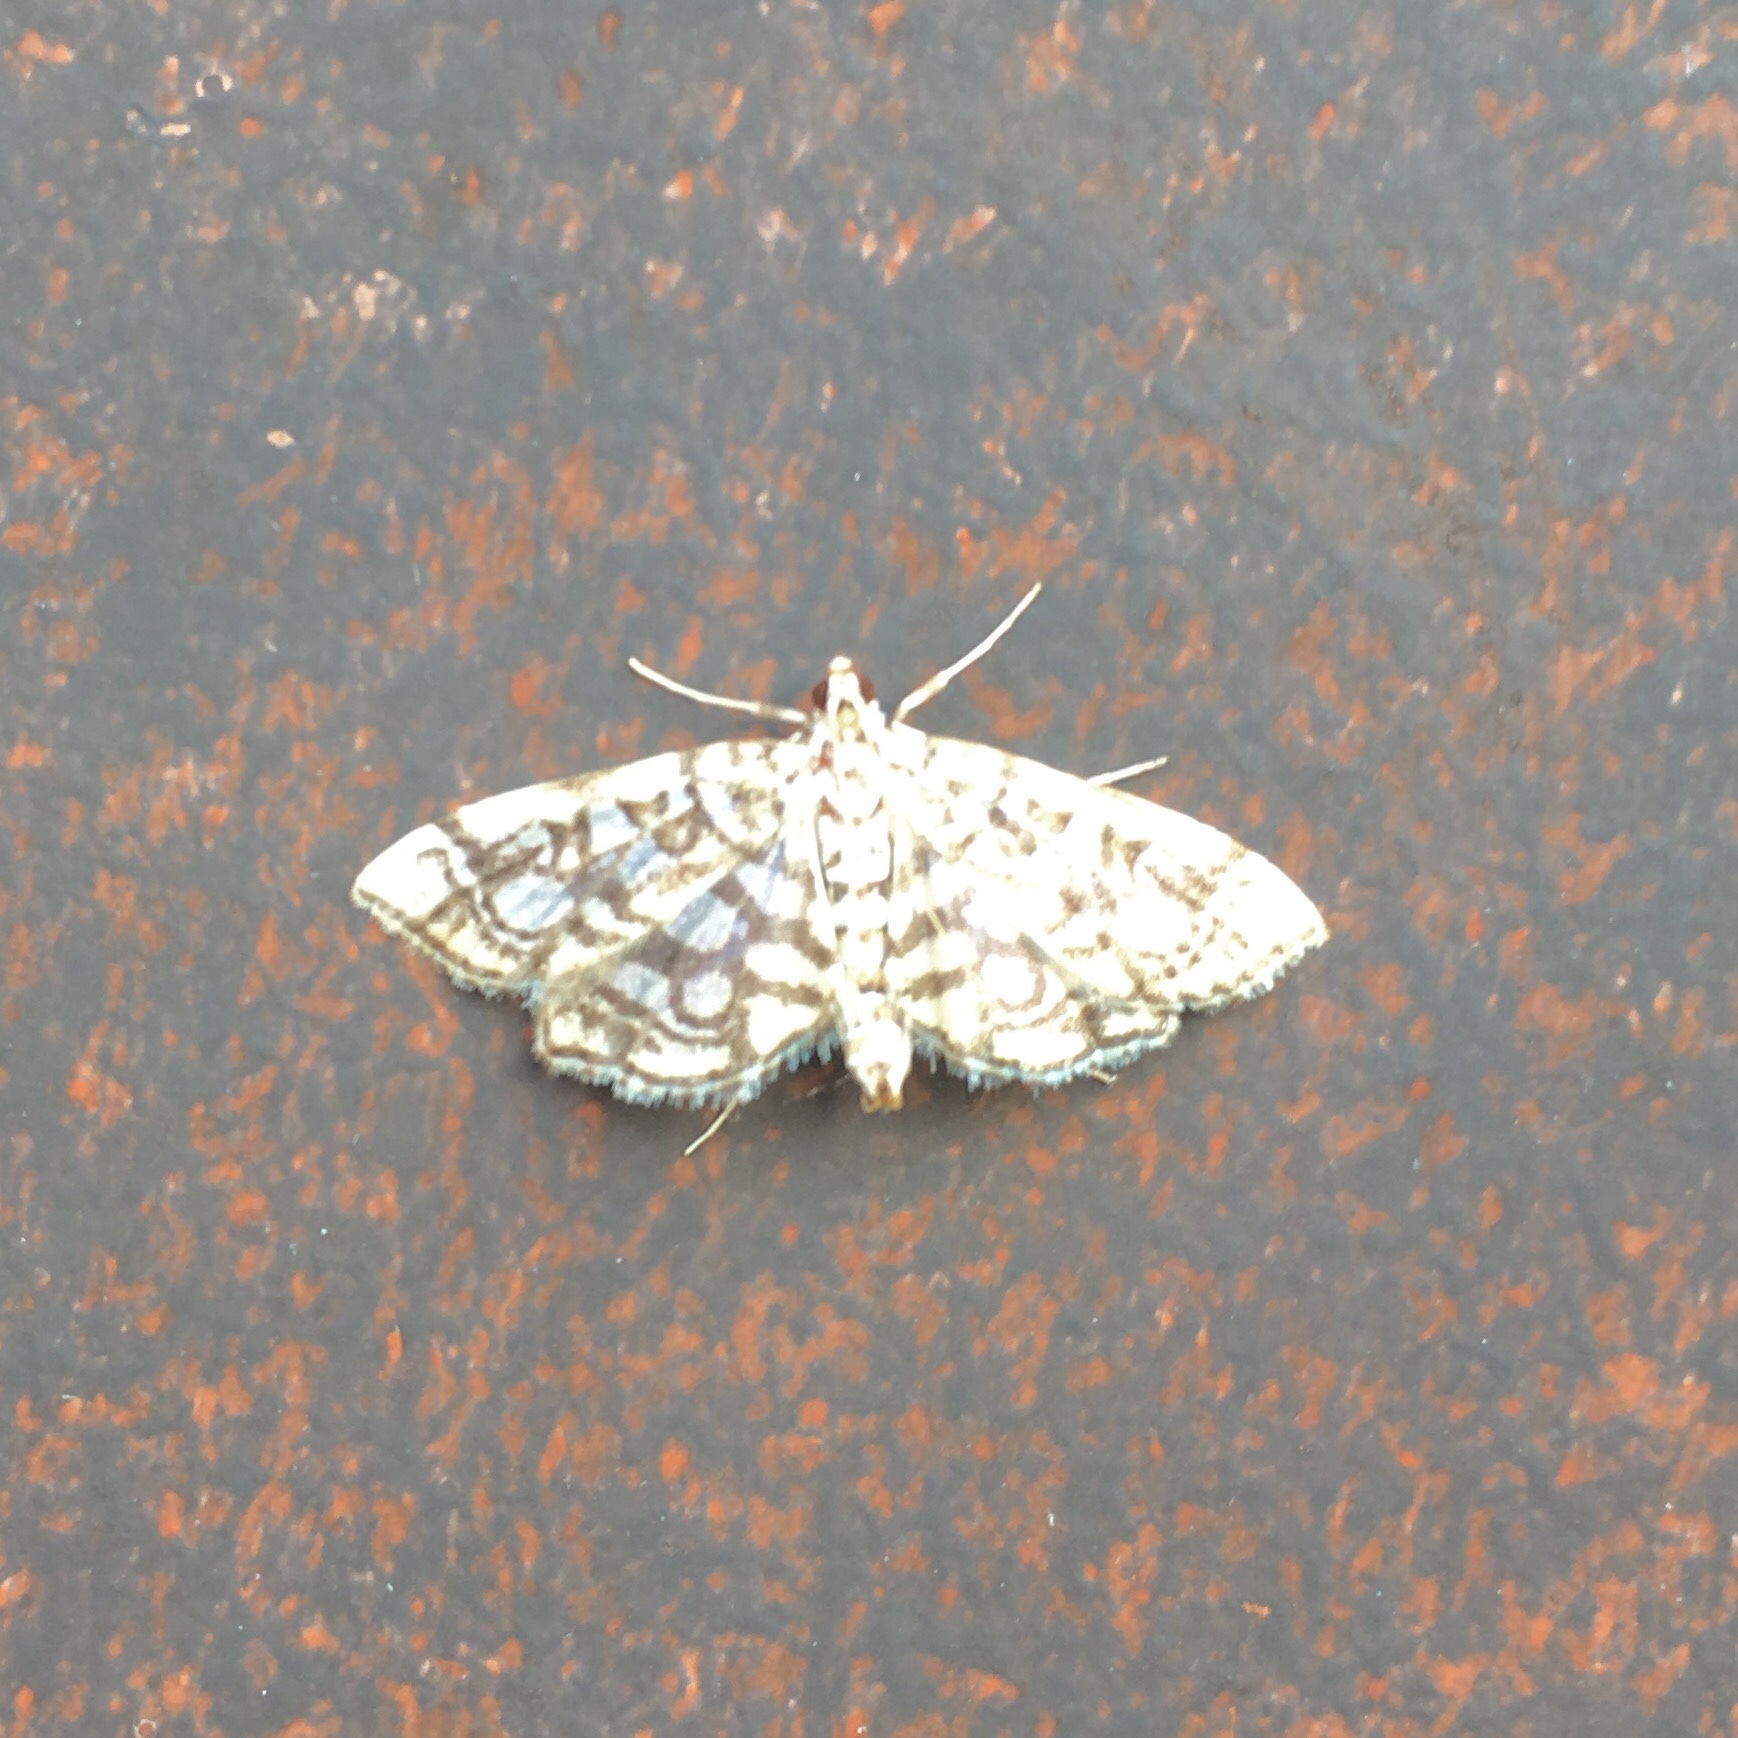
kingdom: Animalia
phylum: Arthropoda
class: Insecta
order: Lepidoptera
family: Crambidae
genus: Lygropia
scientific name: Lygropia rivulalis
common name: Bog lygropia moth
